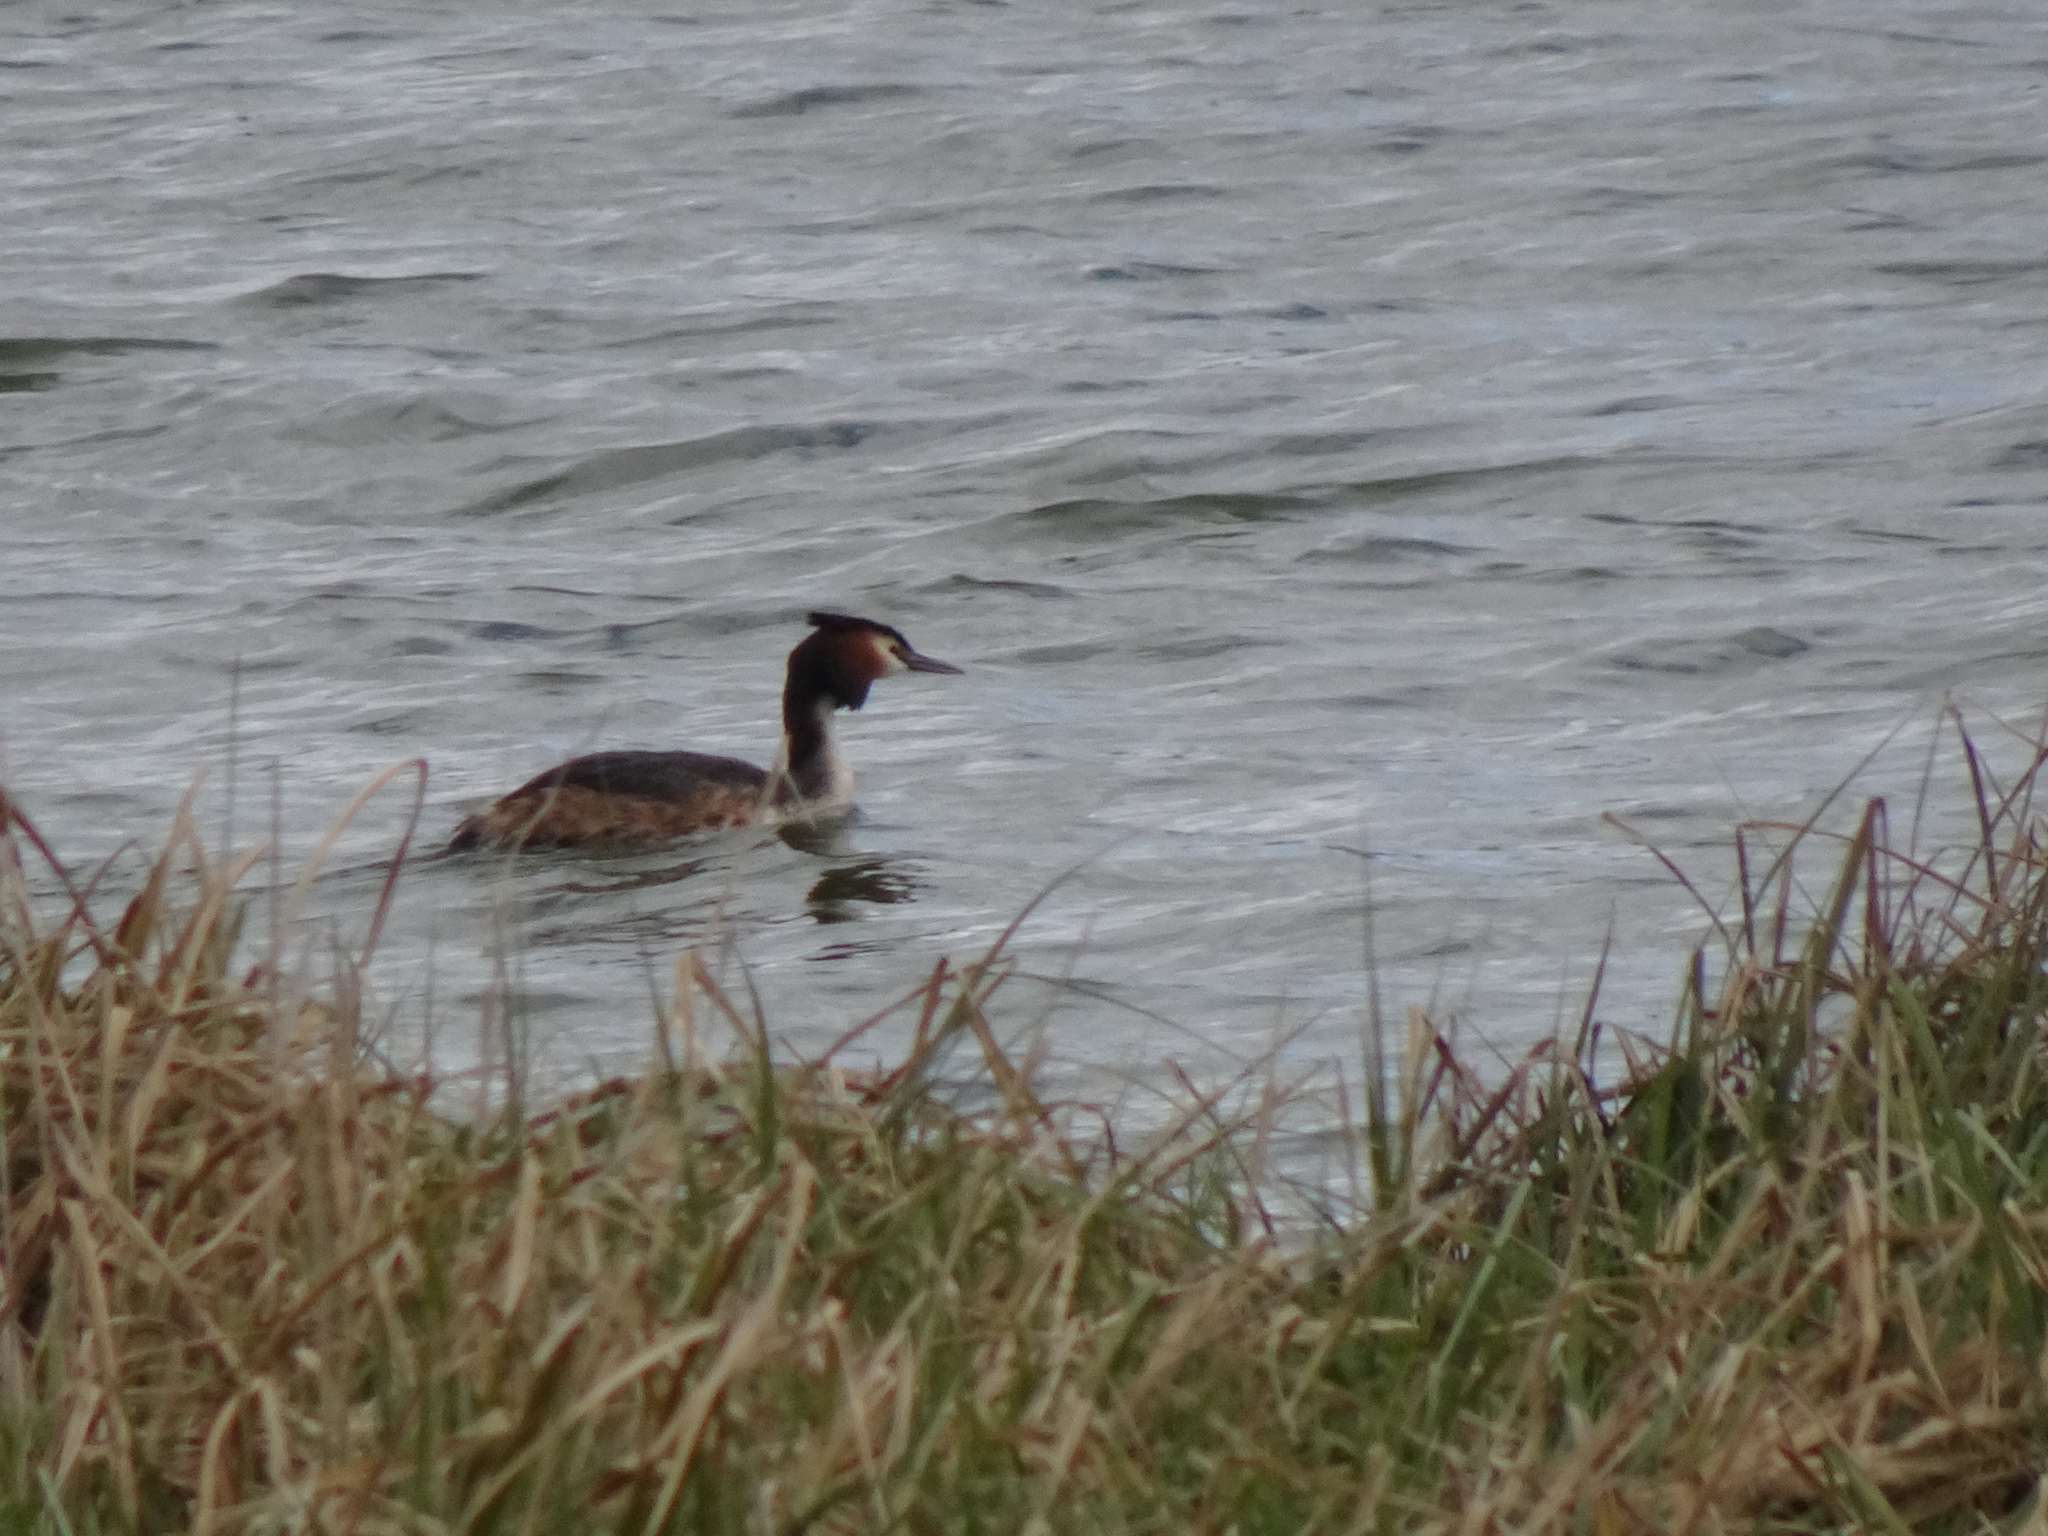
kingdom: Animalia
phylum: Chordata
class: Aves
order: Podicipediformes
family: Podicipedidae
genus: Podiceps
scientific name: Podiceps cristatus
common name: Great crested grebe
